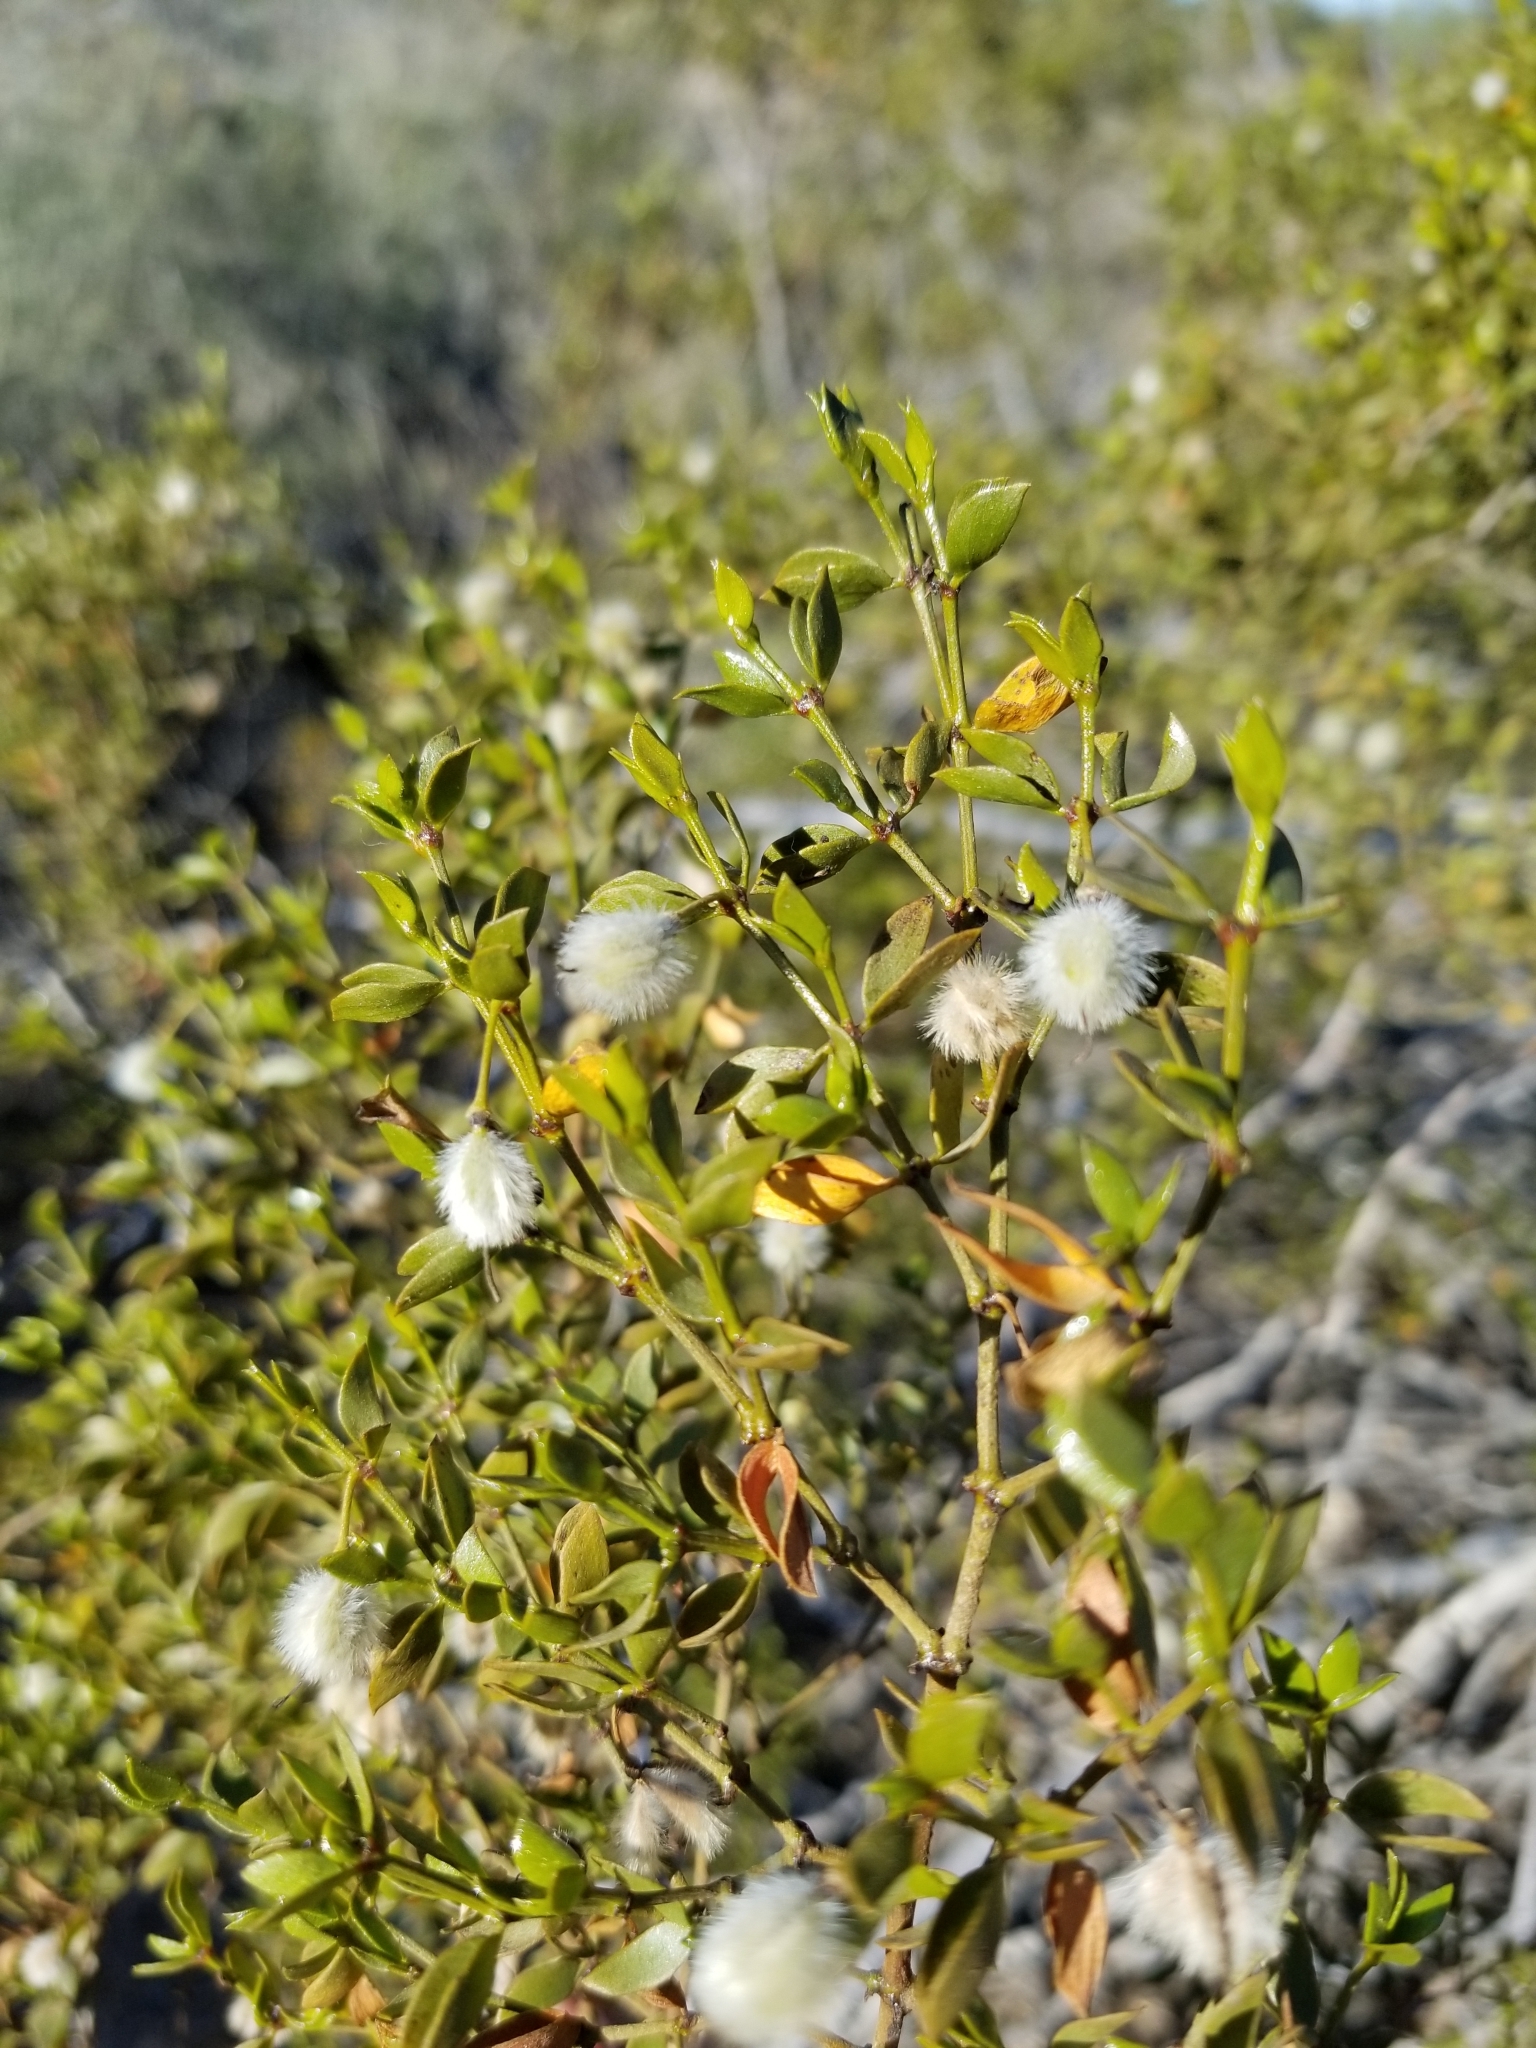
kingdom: Plantae
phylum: Tracheophyta
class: Magnoliopsida
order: Zygophyllales
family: Zygophyllaceae
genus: Larrea
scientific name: Larrea tridentata
